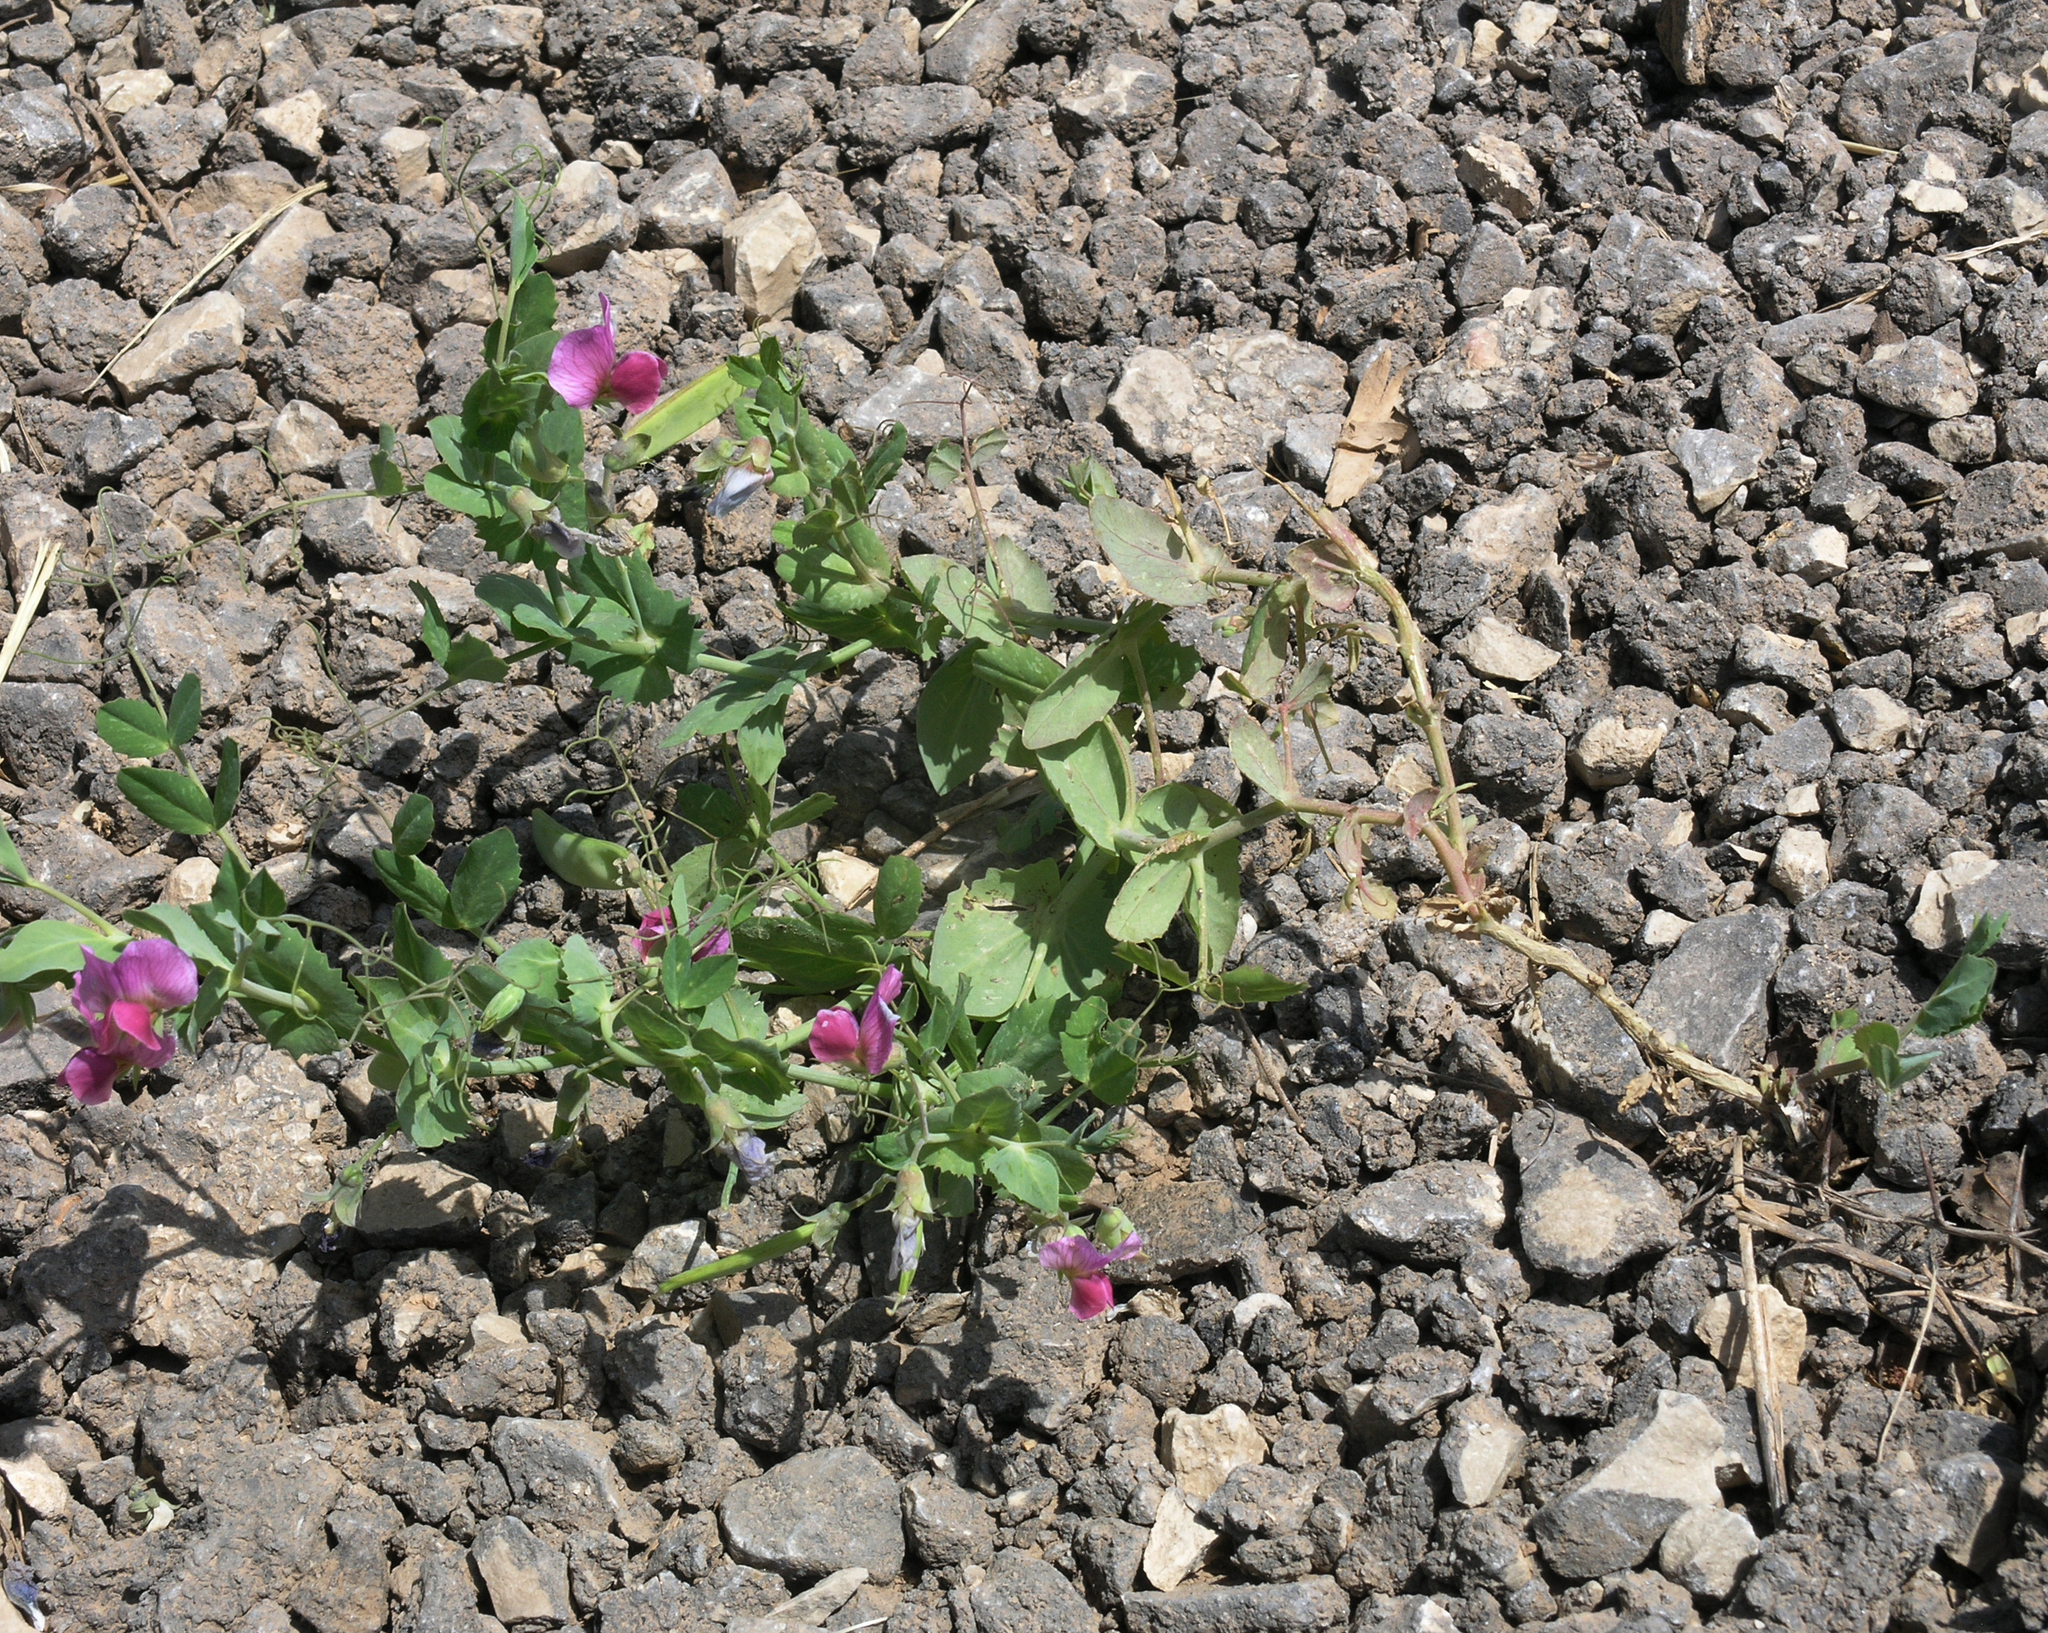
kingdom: Plantae
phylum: Tracheophyta
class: Magnoliopsida
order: Fabales
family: Fabaceae
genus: Lathyrus
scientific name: Lathyrus oleraceus
